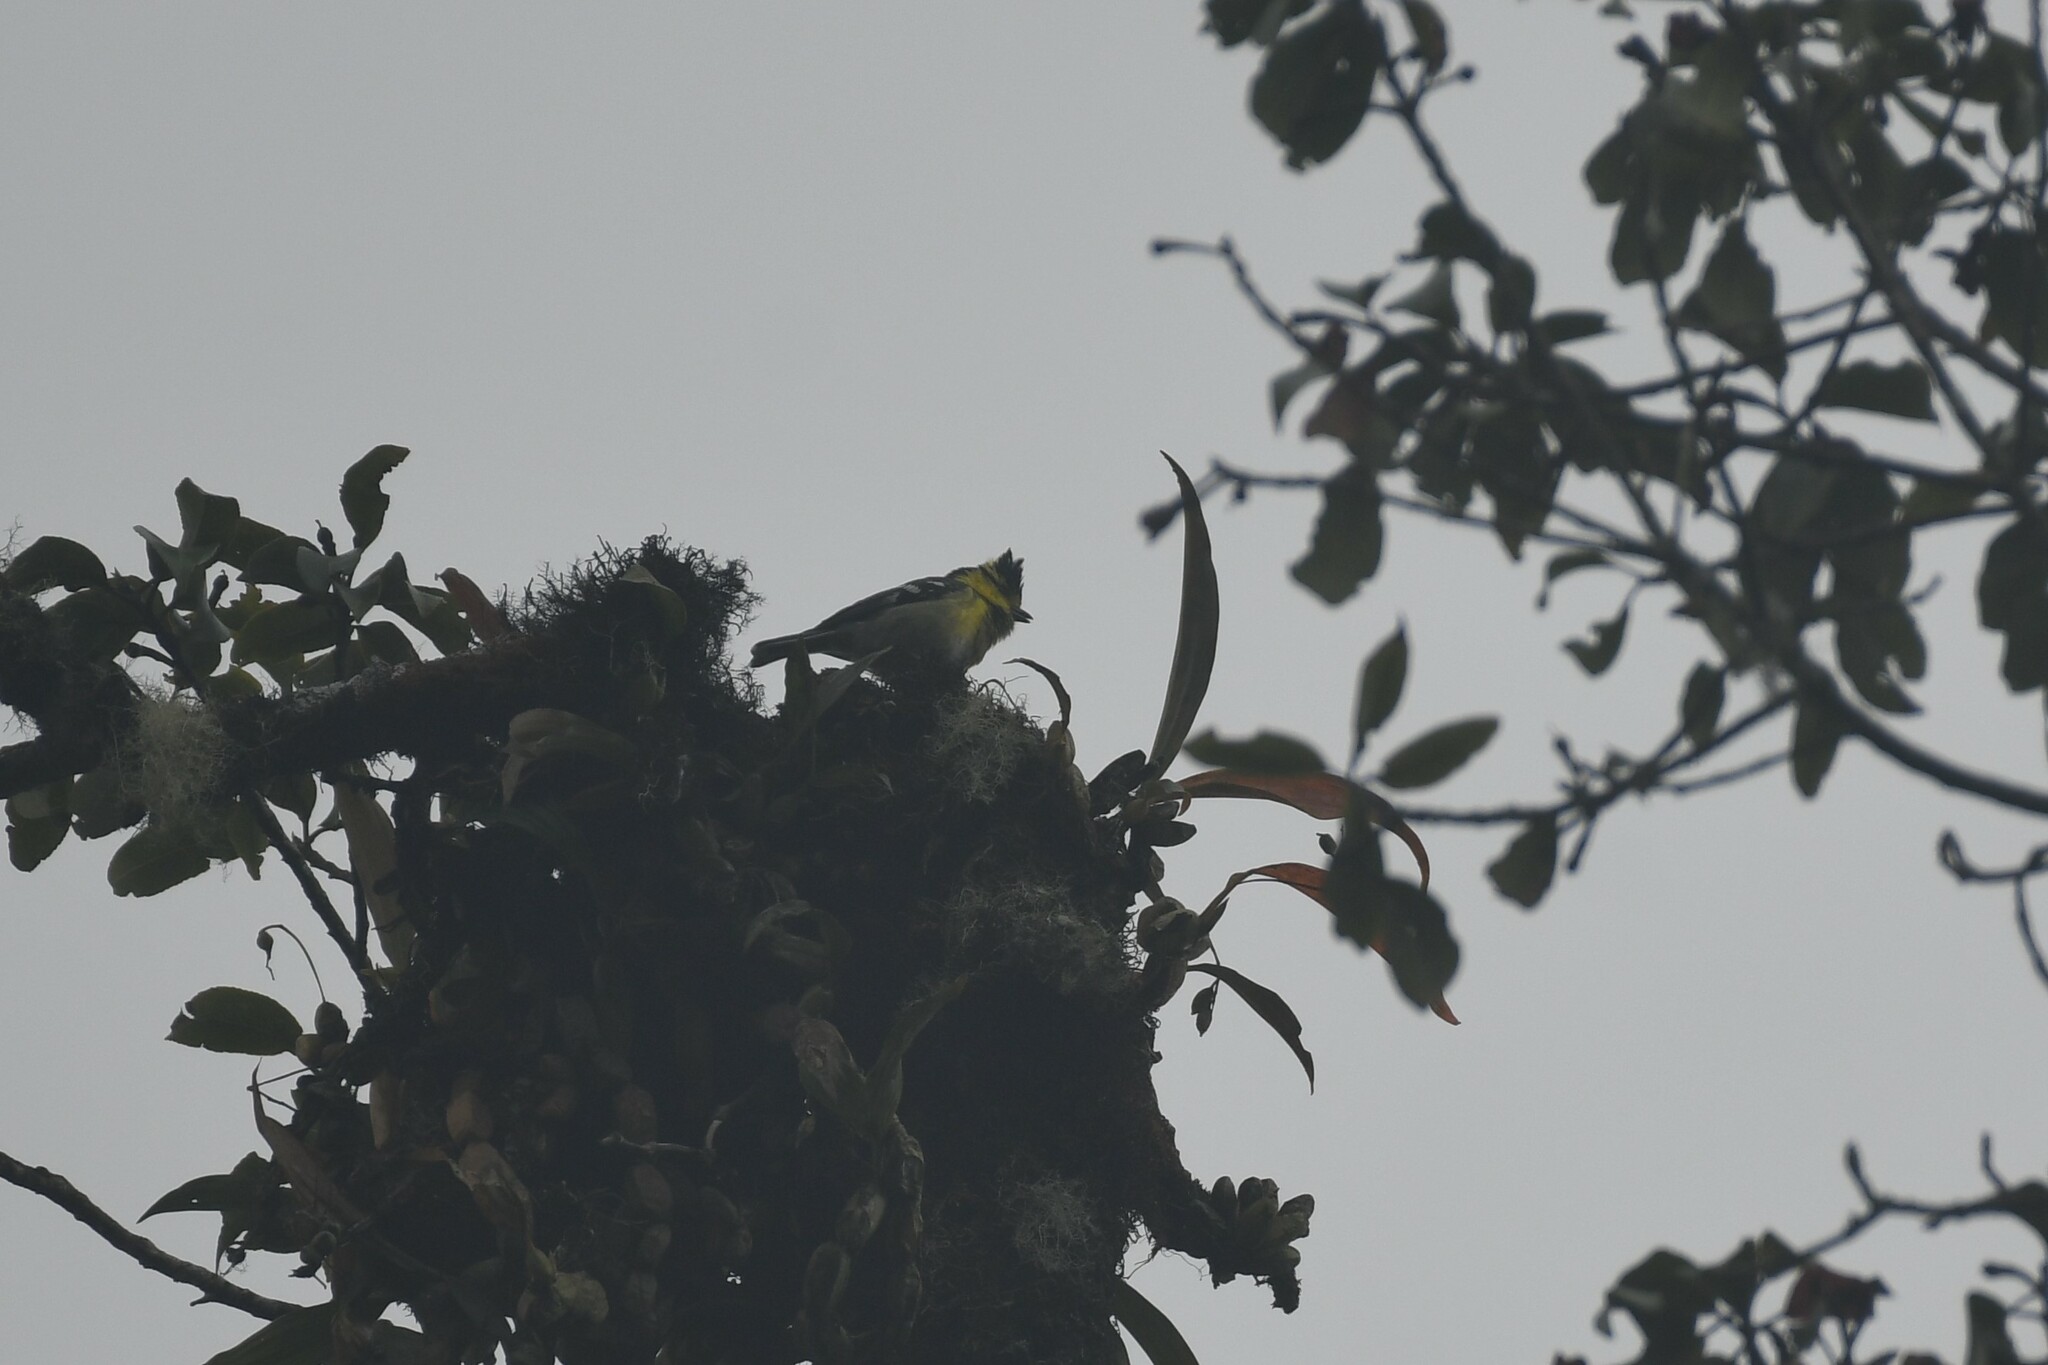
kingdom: Animalia
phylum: Chordata
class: Aves
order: Passeriformes
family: Paridae
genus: Parus
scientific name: Parus spilonotus
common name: Yellow-cheeked tit
